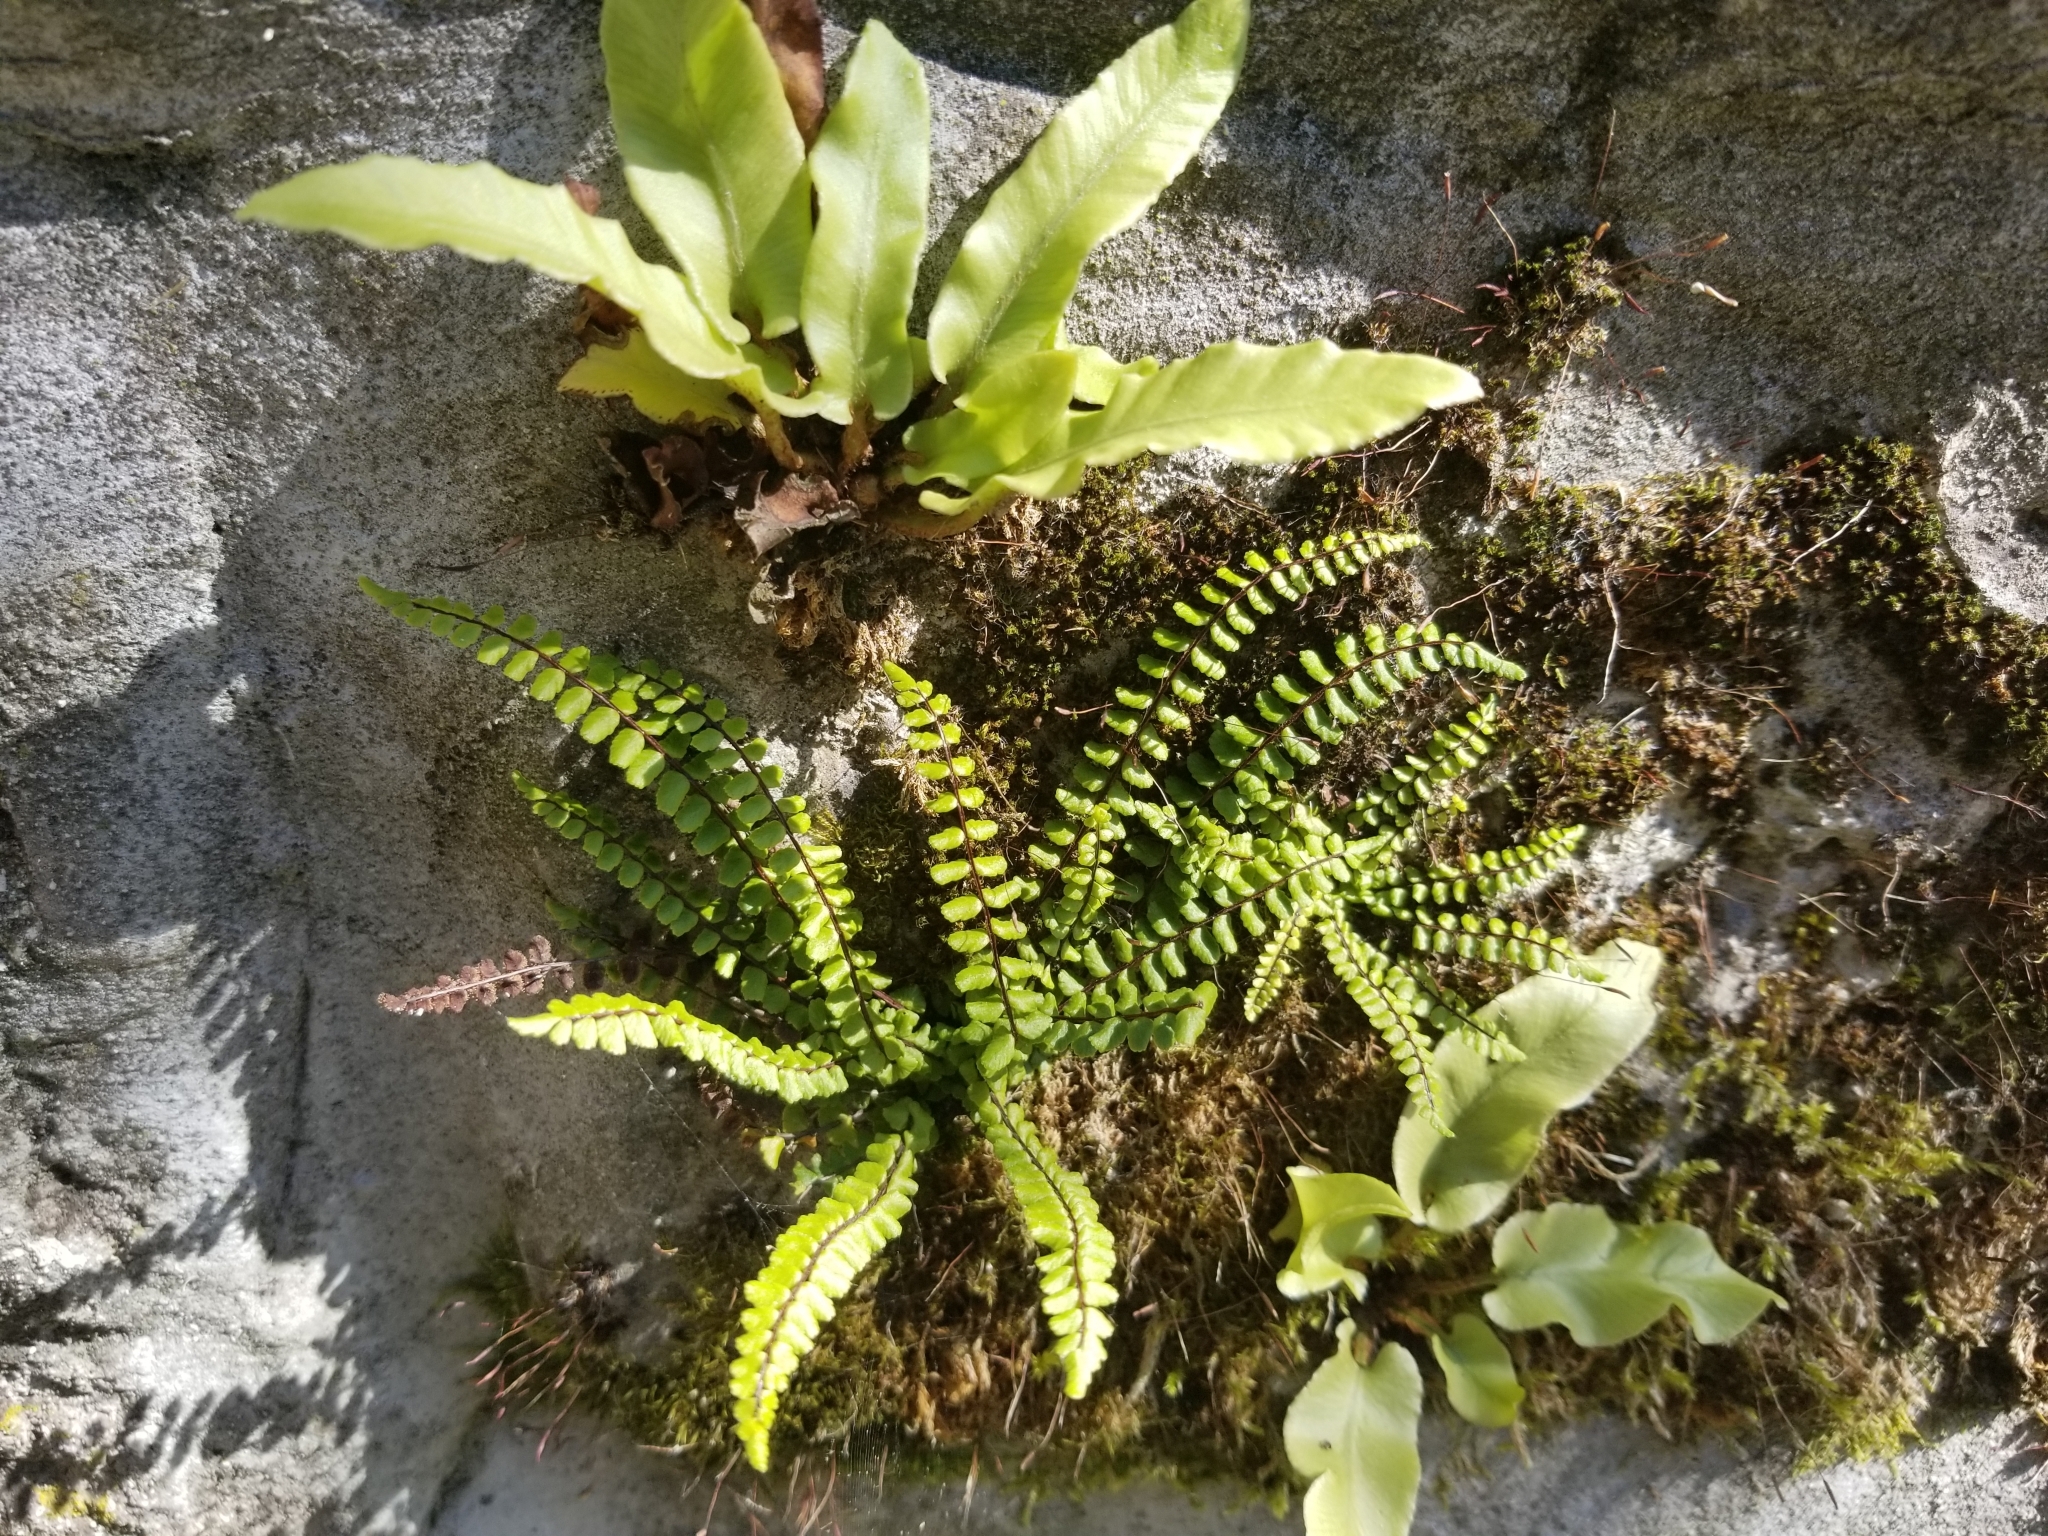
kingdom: Plantae
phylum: Tracheophyta
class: Polypodiopsida
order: Polypodiales
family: Aspleniaceae
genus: Asplenium
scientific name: Asplenium scolopendrium
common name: Hart's-tongue fern
